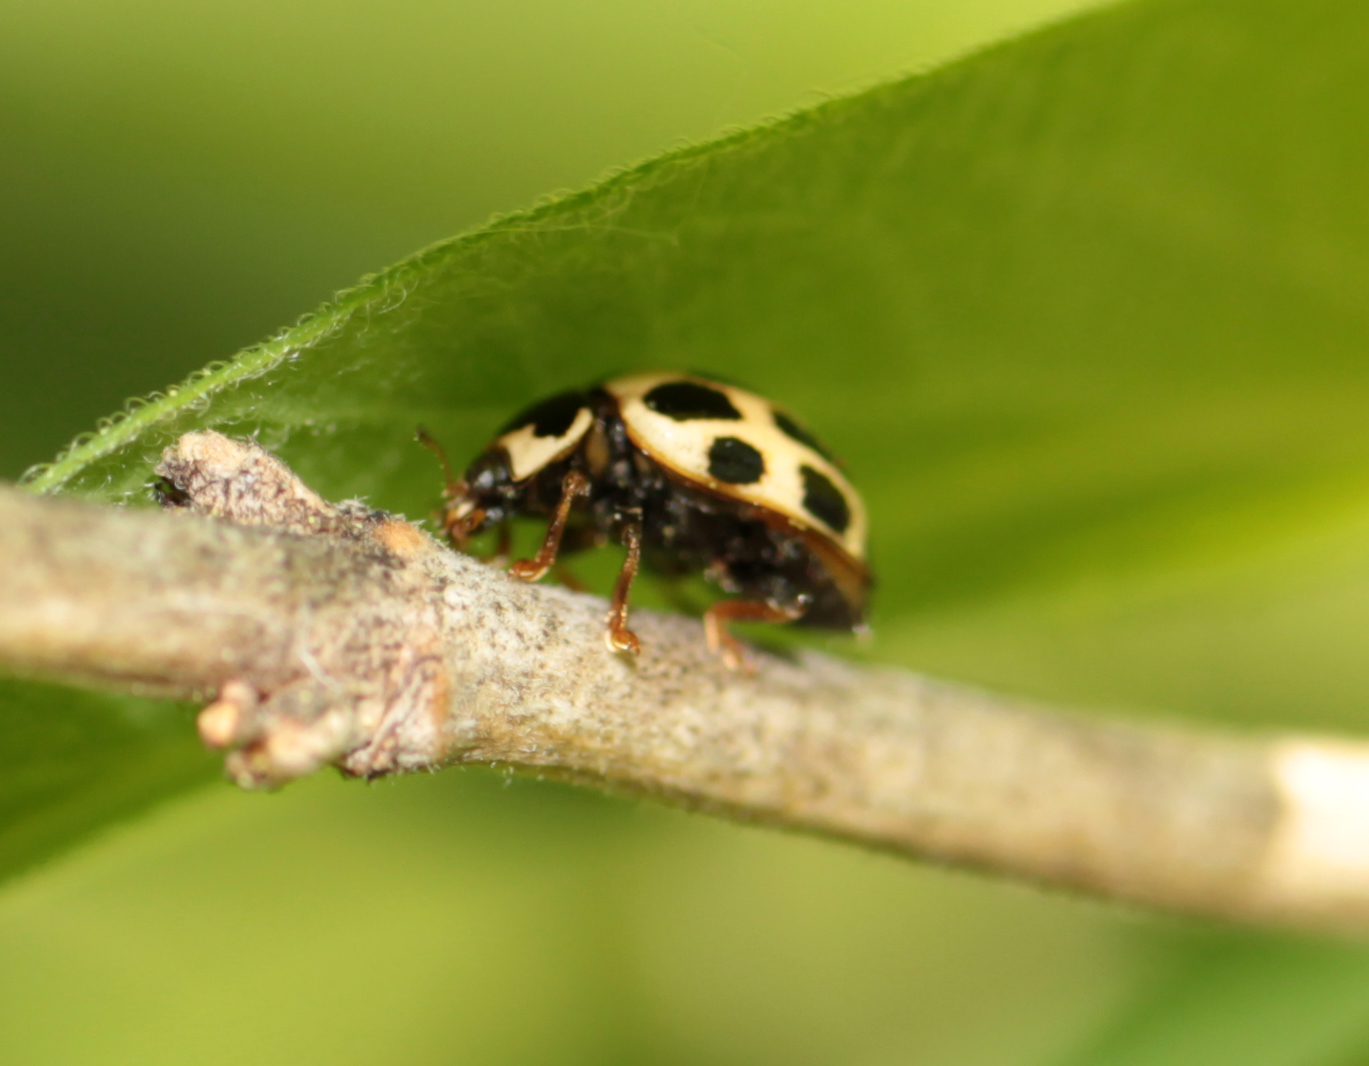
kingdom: Animalia
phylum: Arthropoda
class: Insecta
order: Coleoptera
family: Coccinellidae
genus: Propylaea
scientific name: Propylaea quatuordecimpunctata
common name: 14-spotted ladybird beetle
